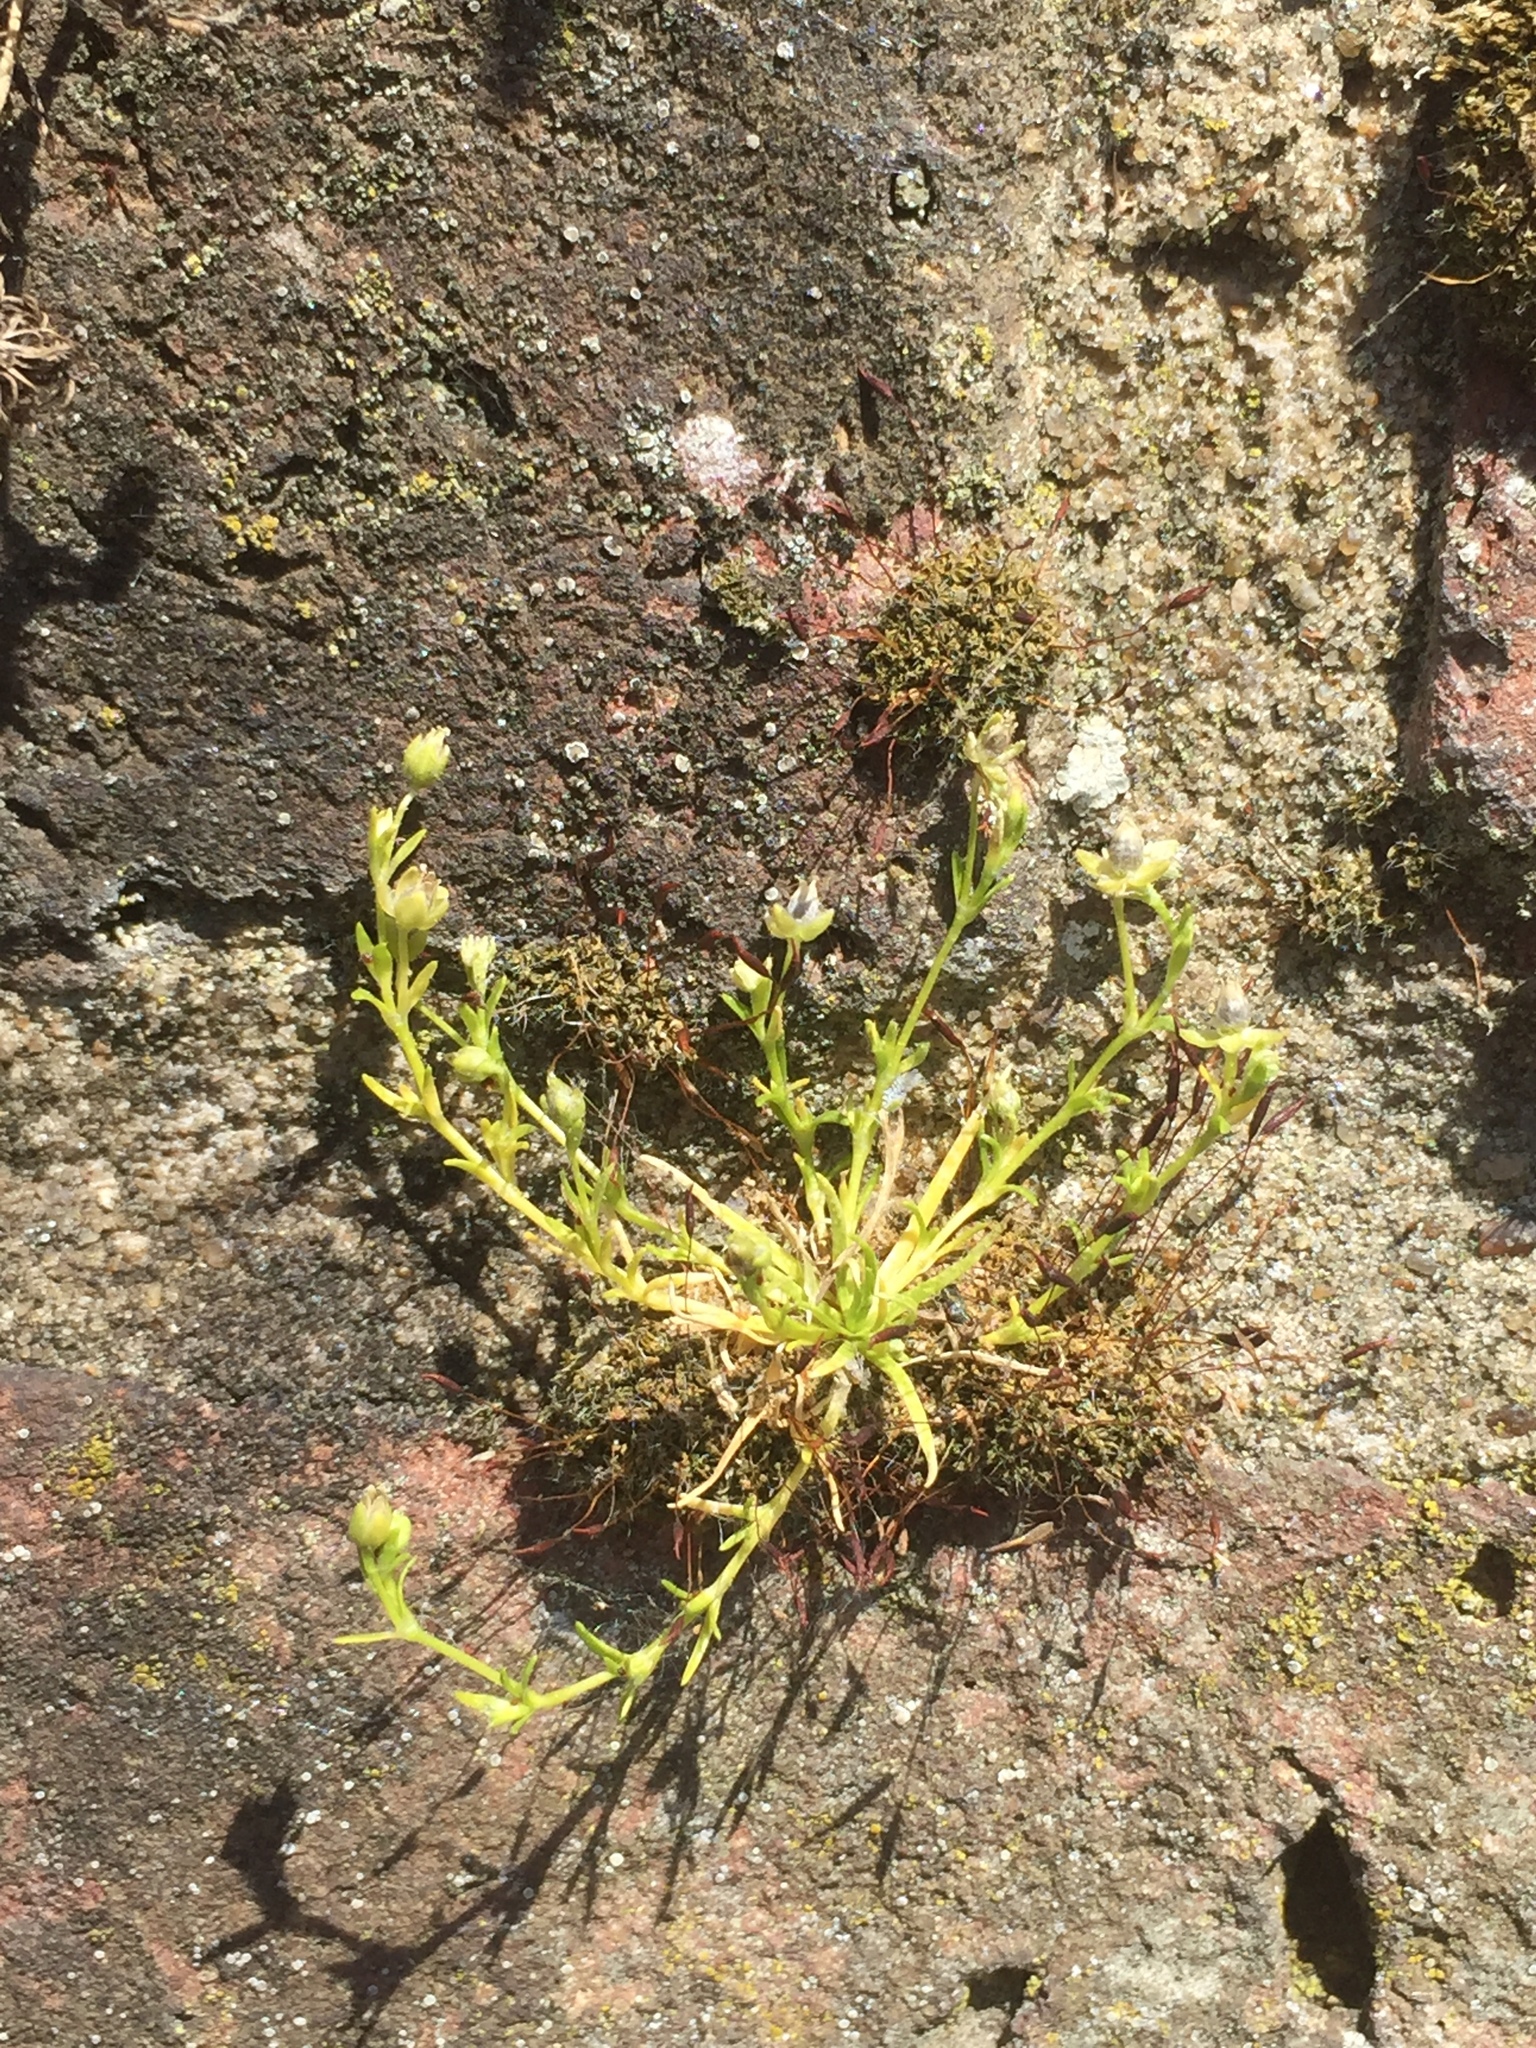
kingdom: Plantae
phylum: Tracheophyta
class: Magnoliopsida
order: Caryophyllales
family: Caryophyllaceae
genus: Sagina
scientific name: Sagina procumbens
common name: Procumbent pearlwort
